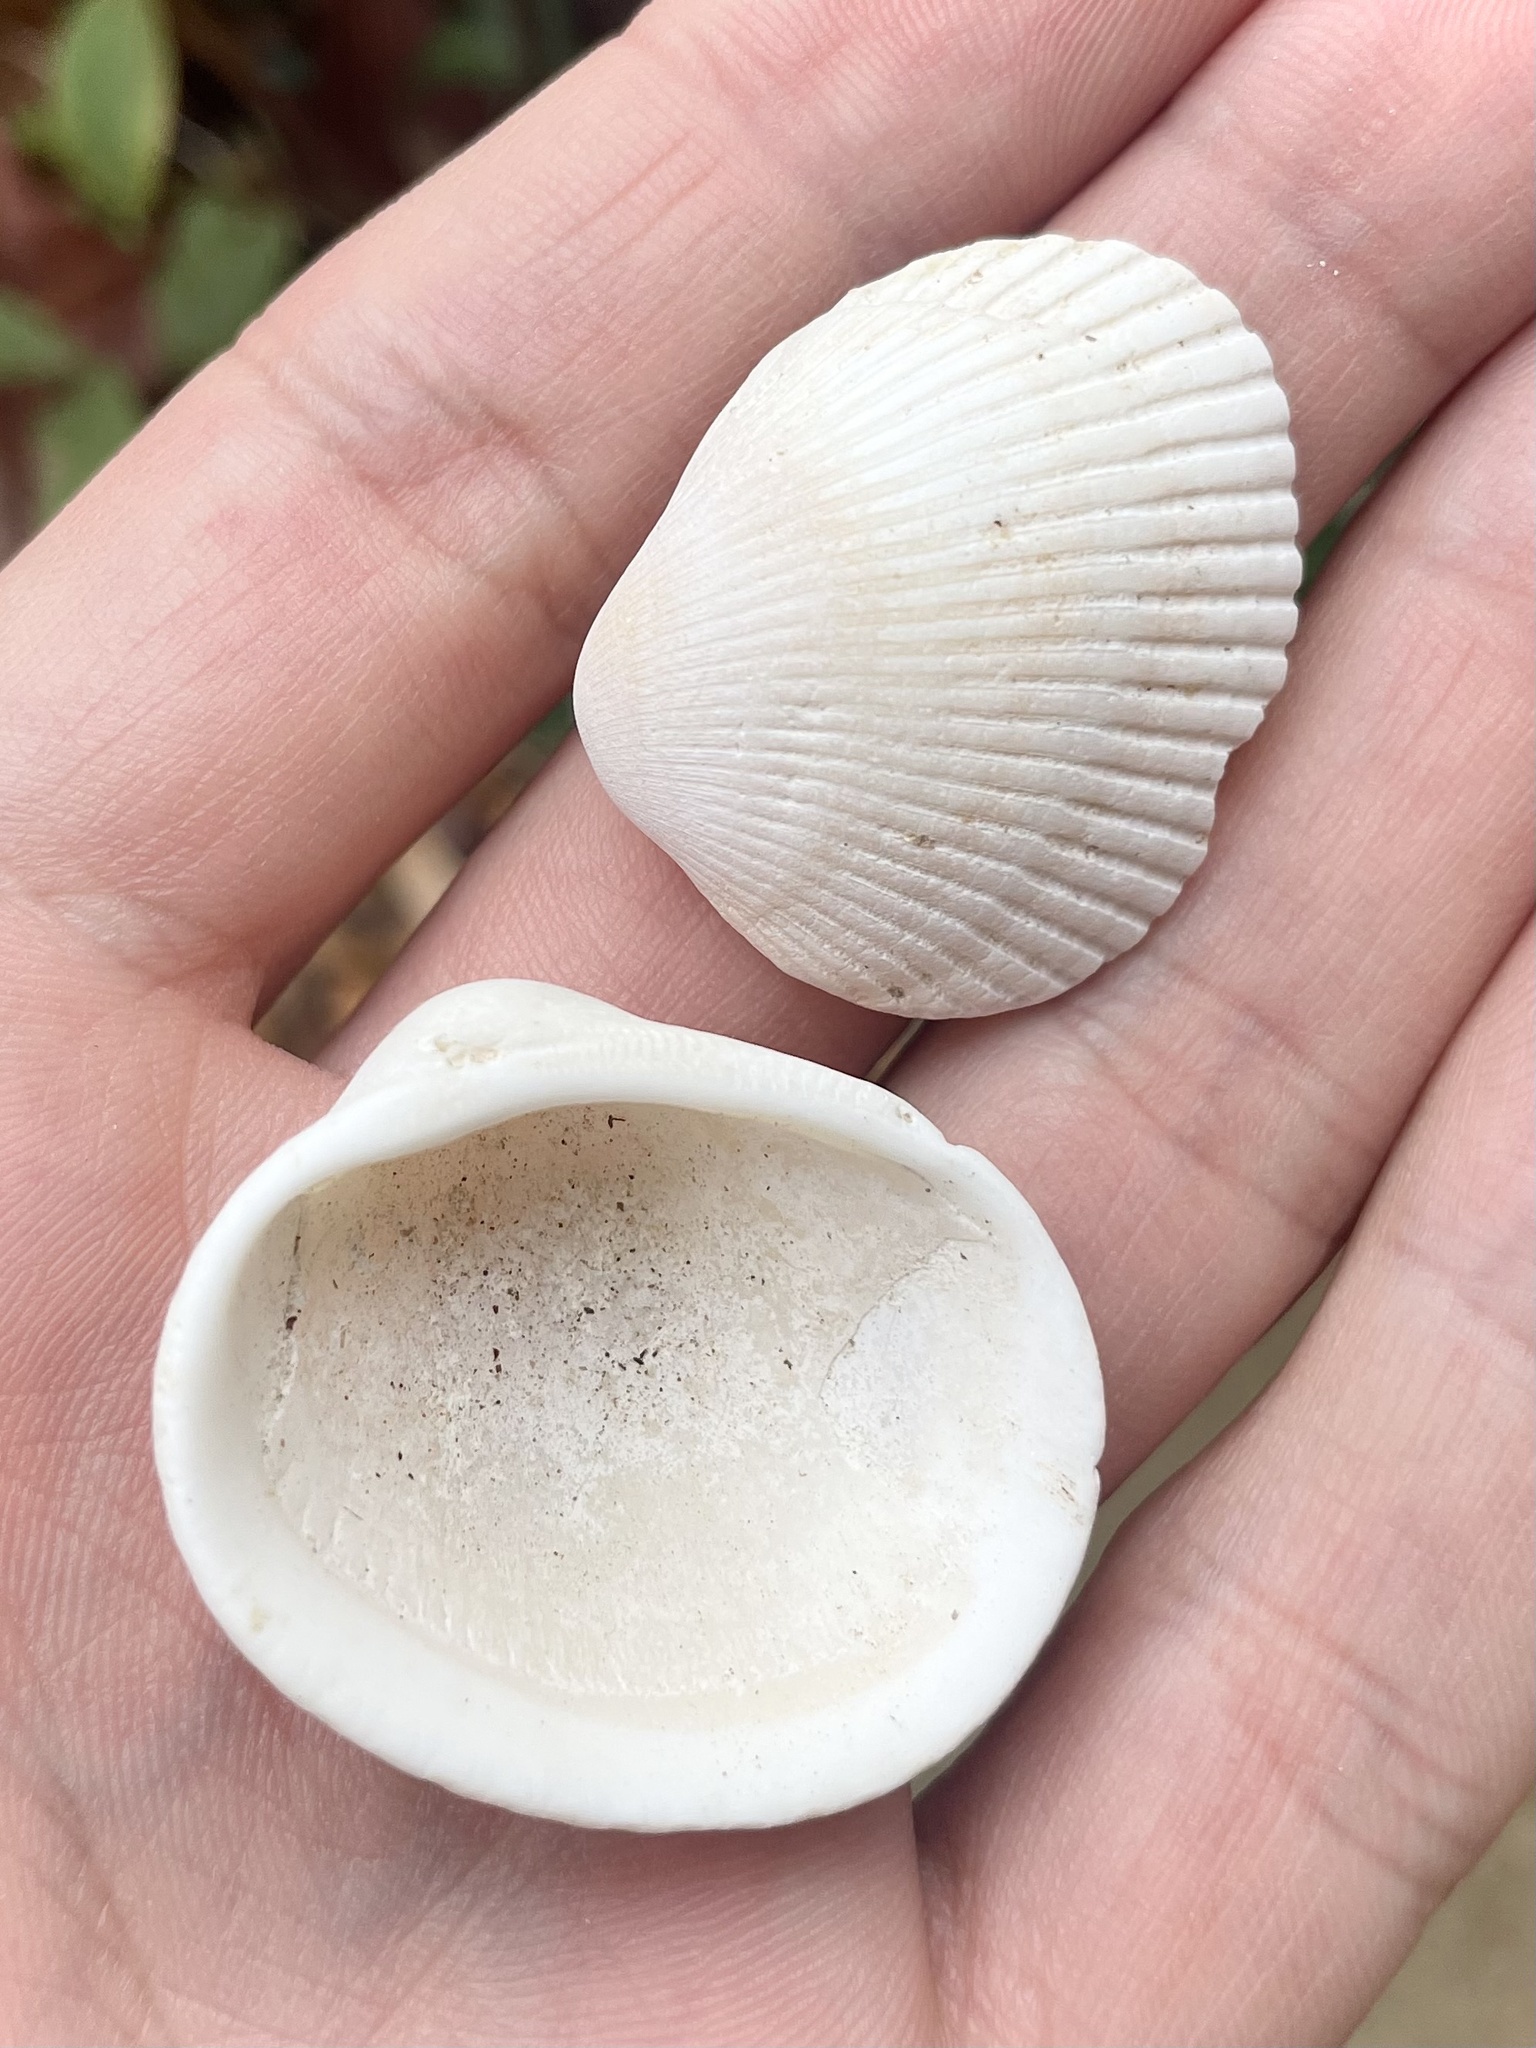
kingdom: Animalia
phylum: Mollusca
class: Bivalvia
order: Arcida
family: Arcidae
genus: Lunarca
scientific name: Lunarca ovalis
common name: Blood ark
